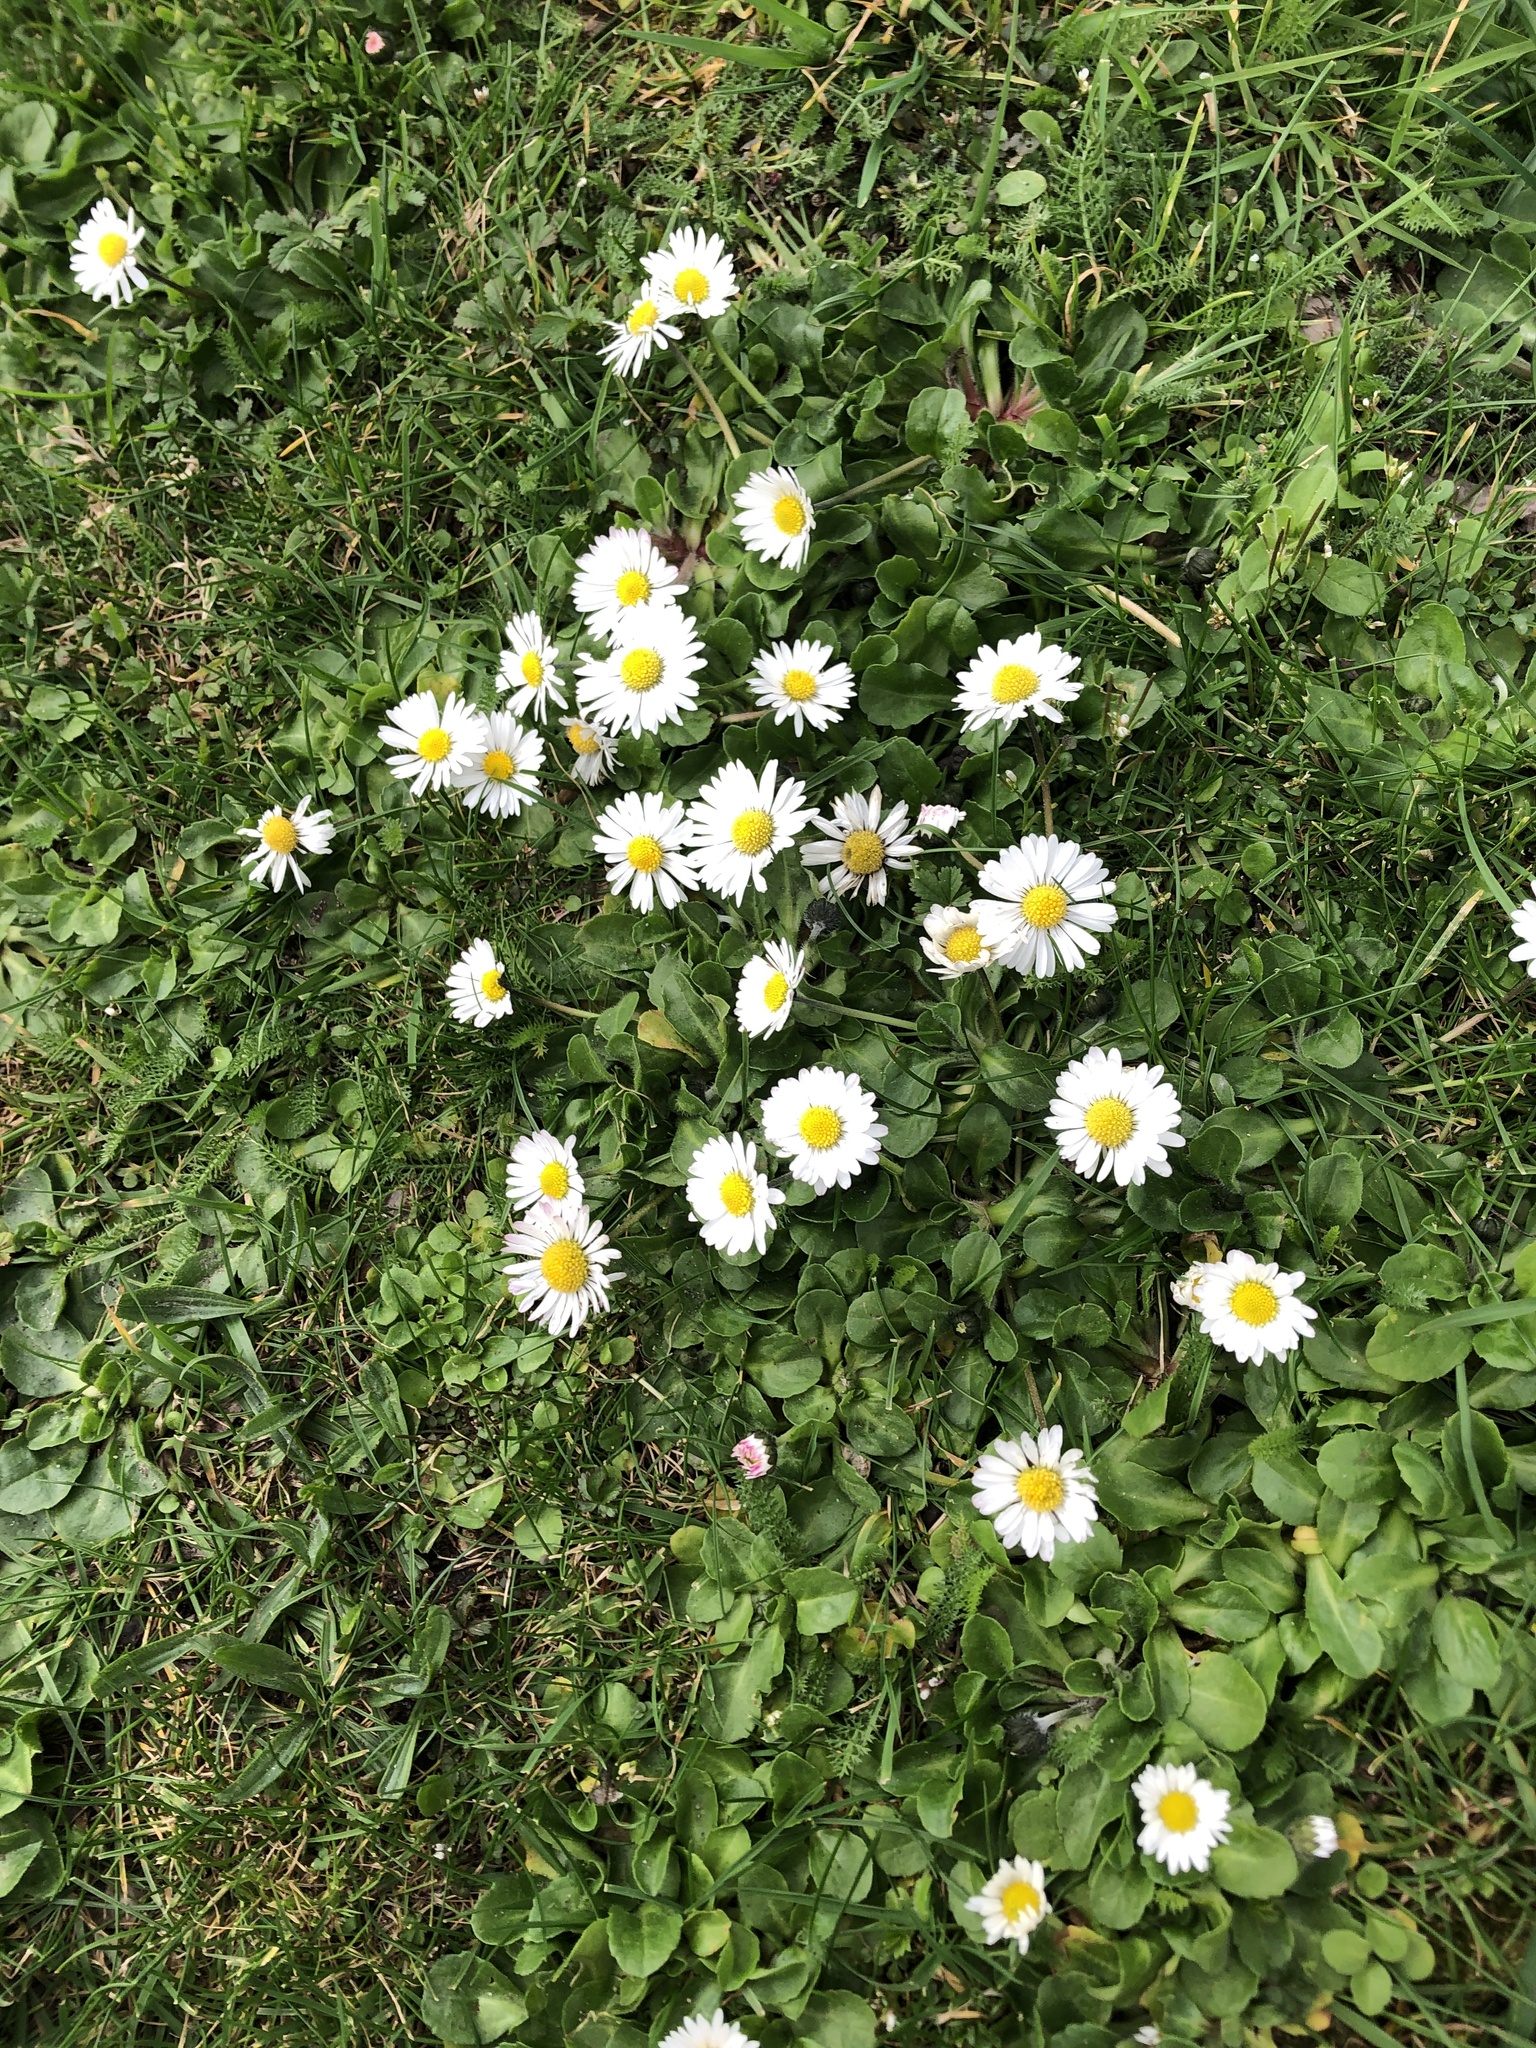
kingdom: Plantae
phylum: Tracheophyta
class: Magnoliopsida
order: Asterales
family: Asteraceae
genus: Bellis
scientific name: Bellis perennis
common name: Lawndaisy
